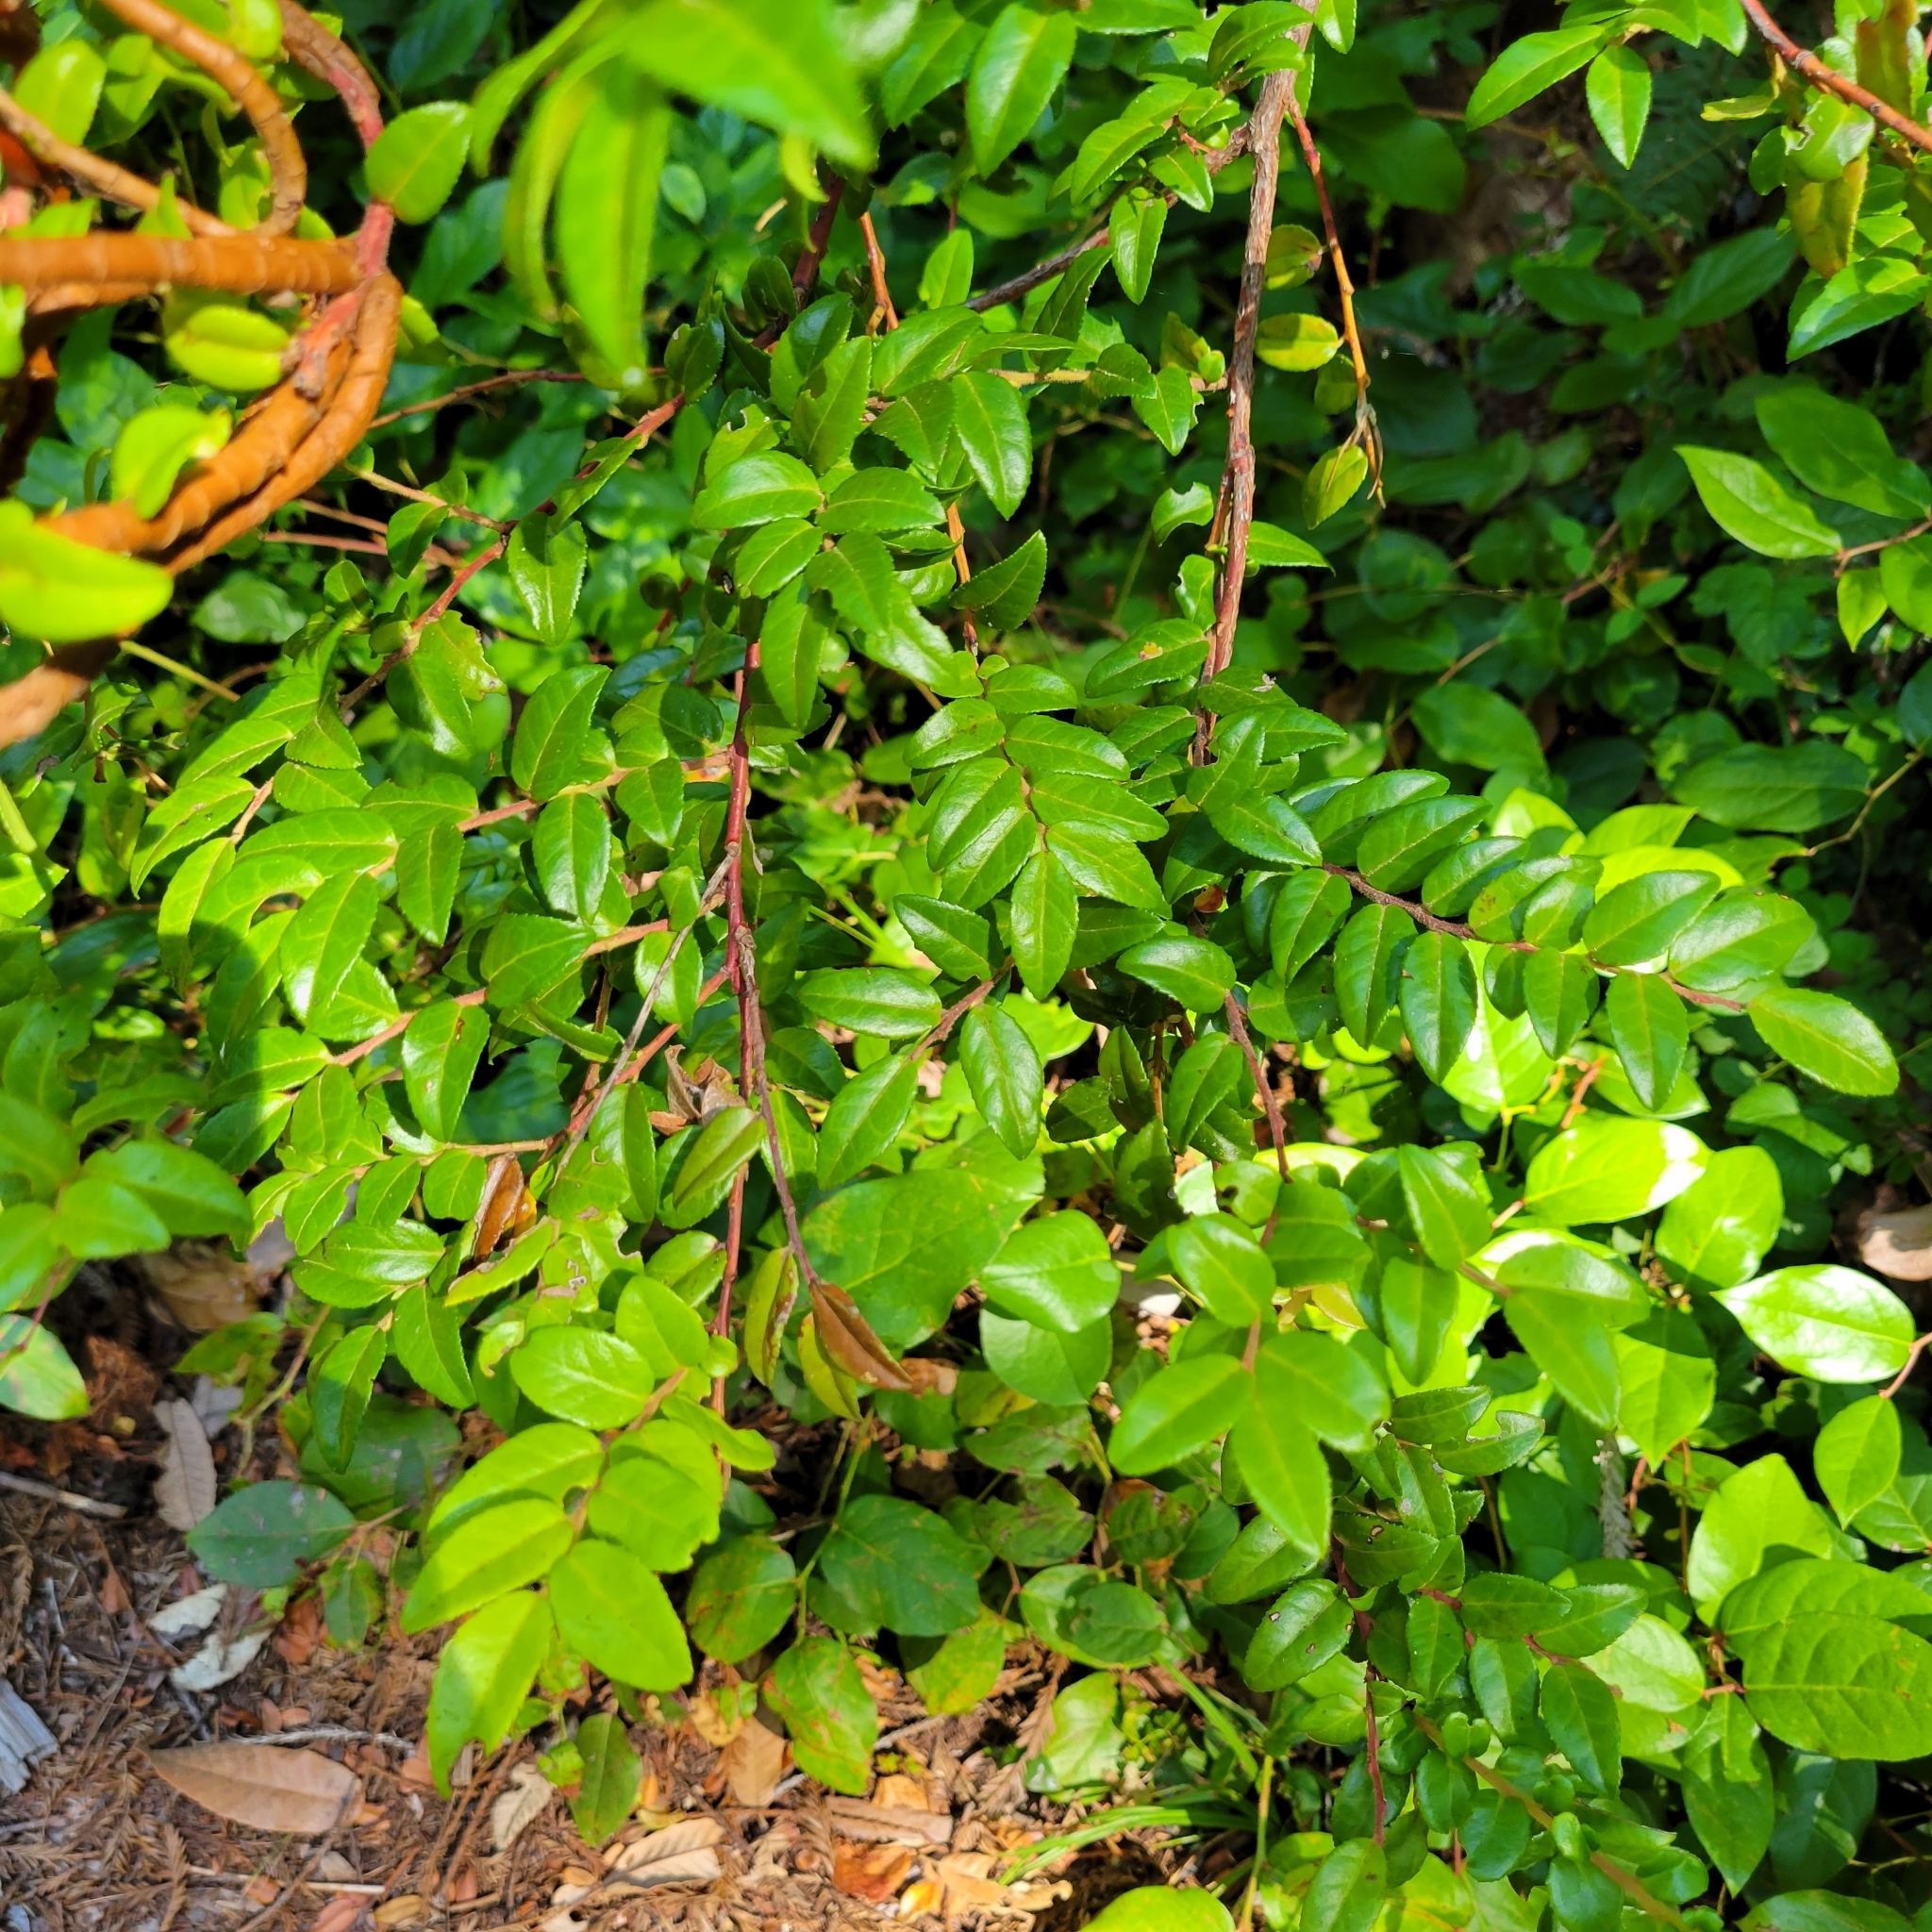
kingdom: Plantae
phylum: Tracheophyta
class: Magnoliopsida
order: Ericales
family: Ericaceae
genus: Vaccinium
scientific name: Vaccinium ovatum
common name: California-huckleberry
